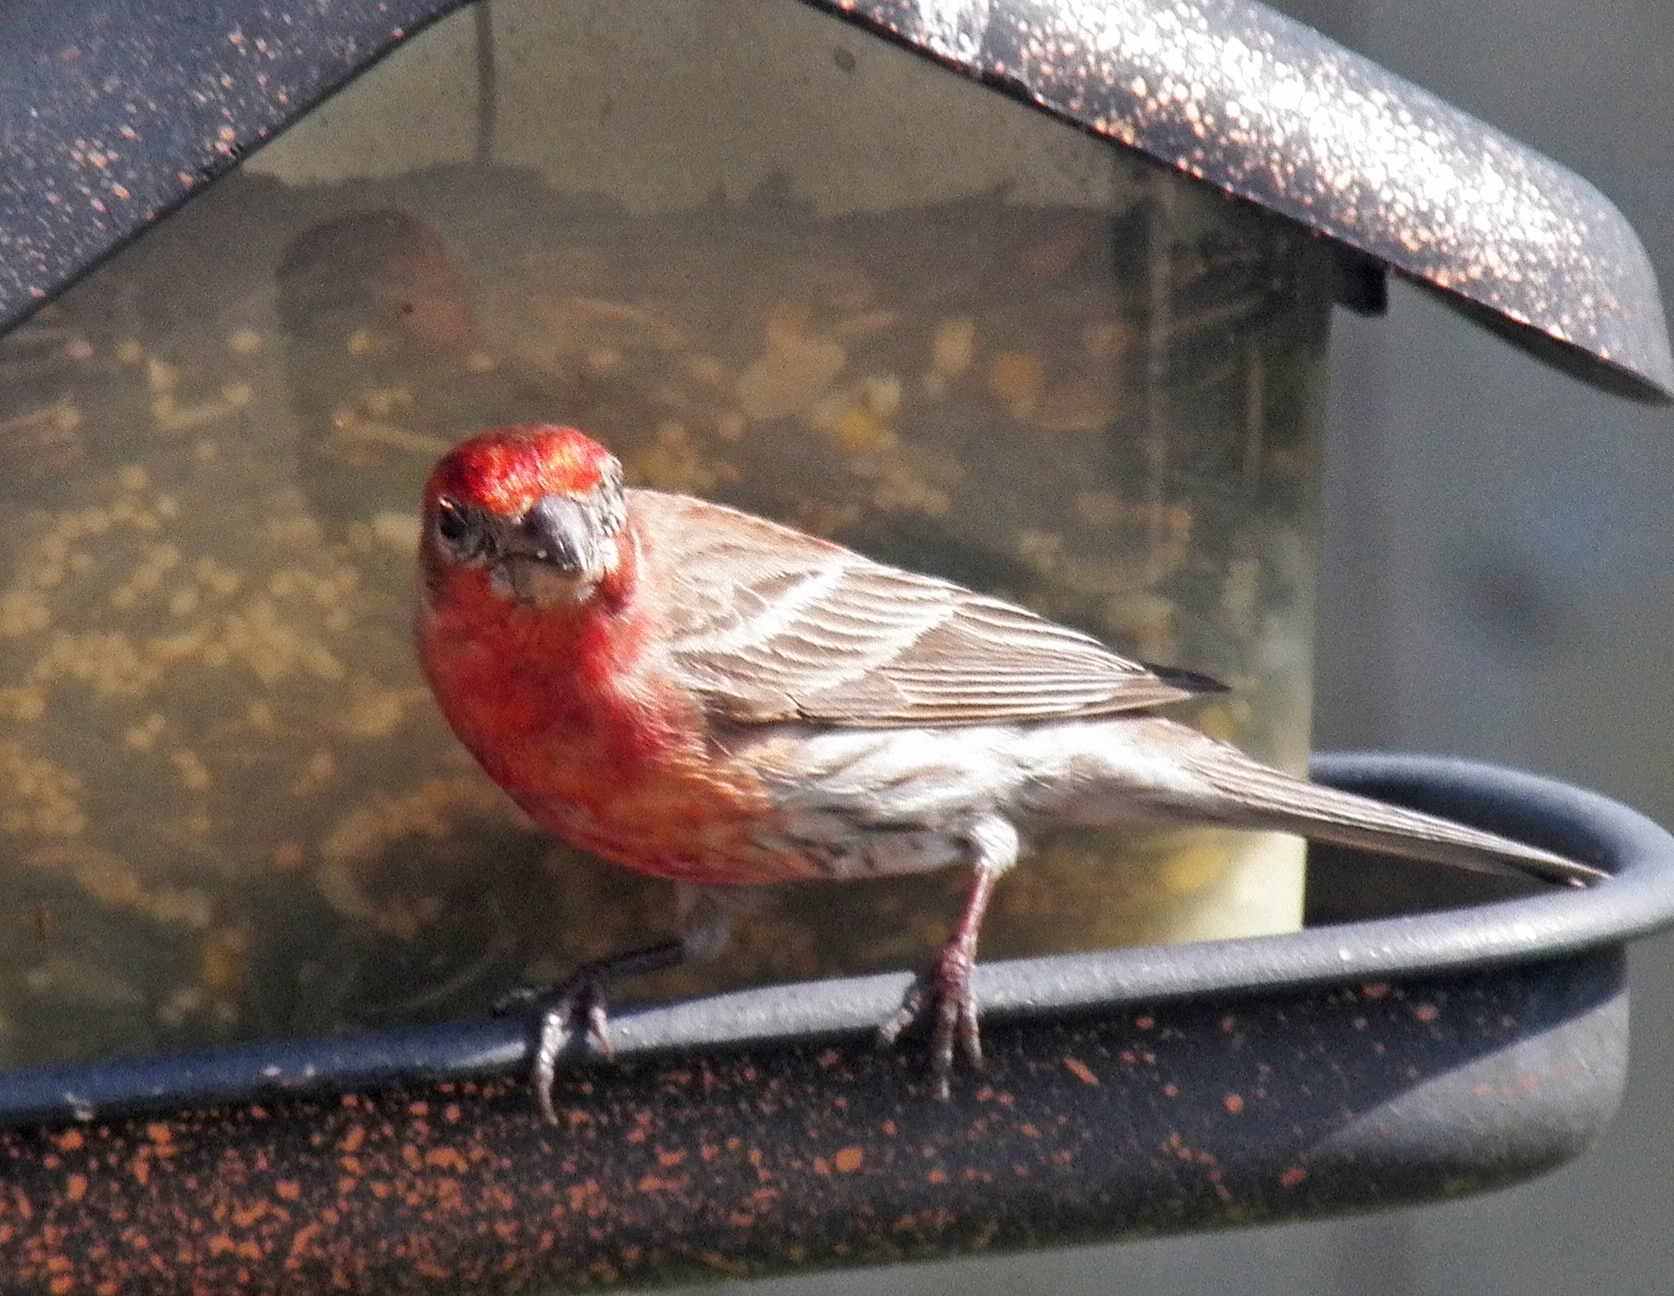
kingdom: Animalia
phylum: Chordata
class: Aves
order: Passeriformes
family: Fringillidae
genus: Haemorhous
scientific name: Haemorhous mexicanus
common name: House finch
